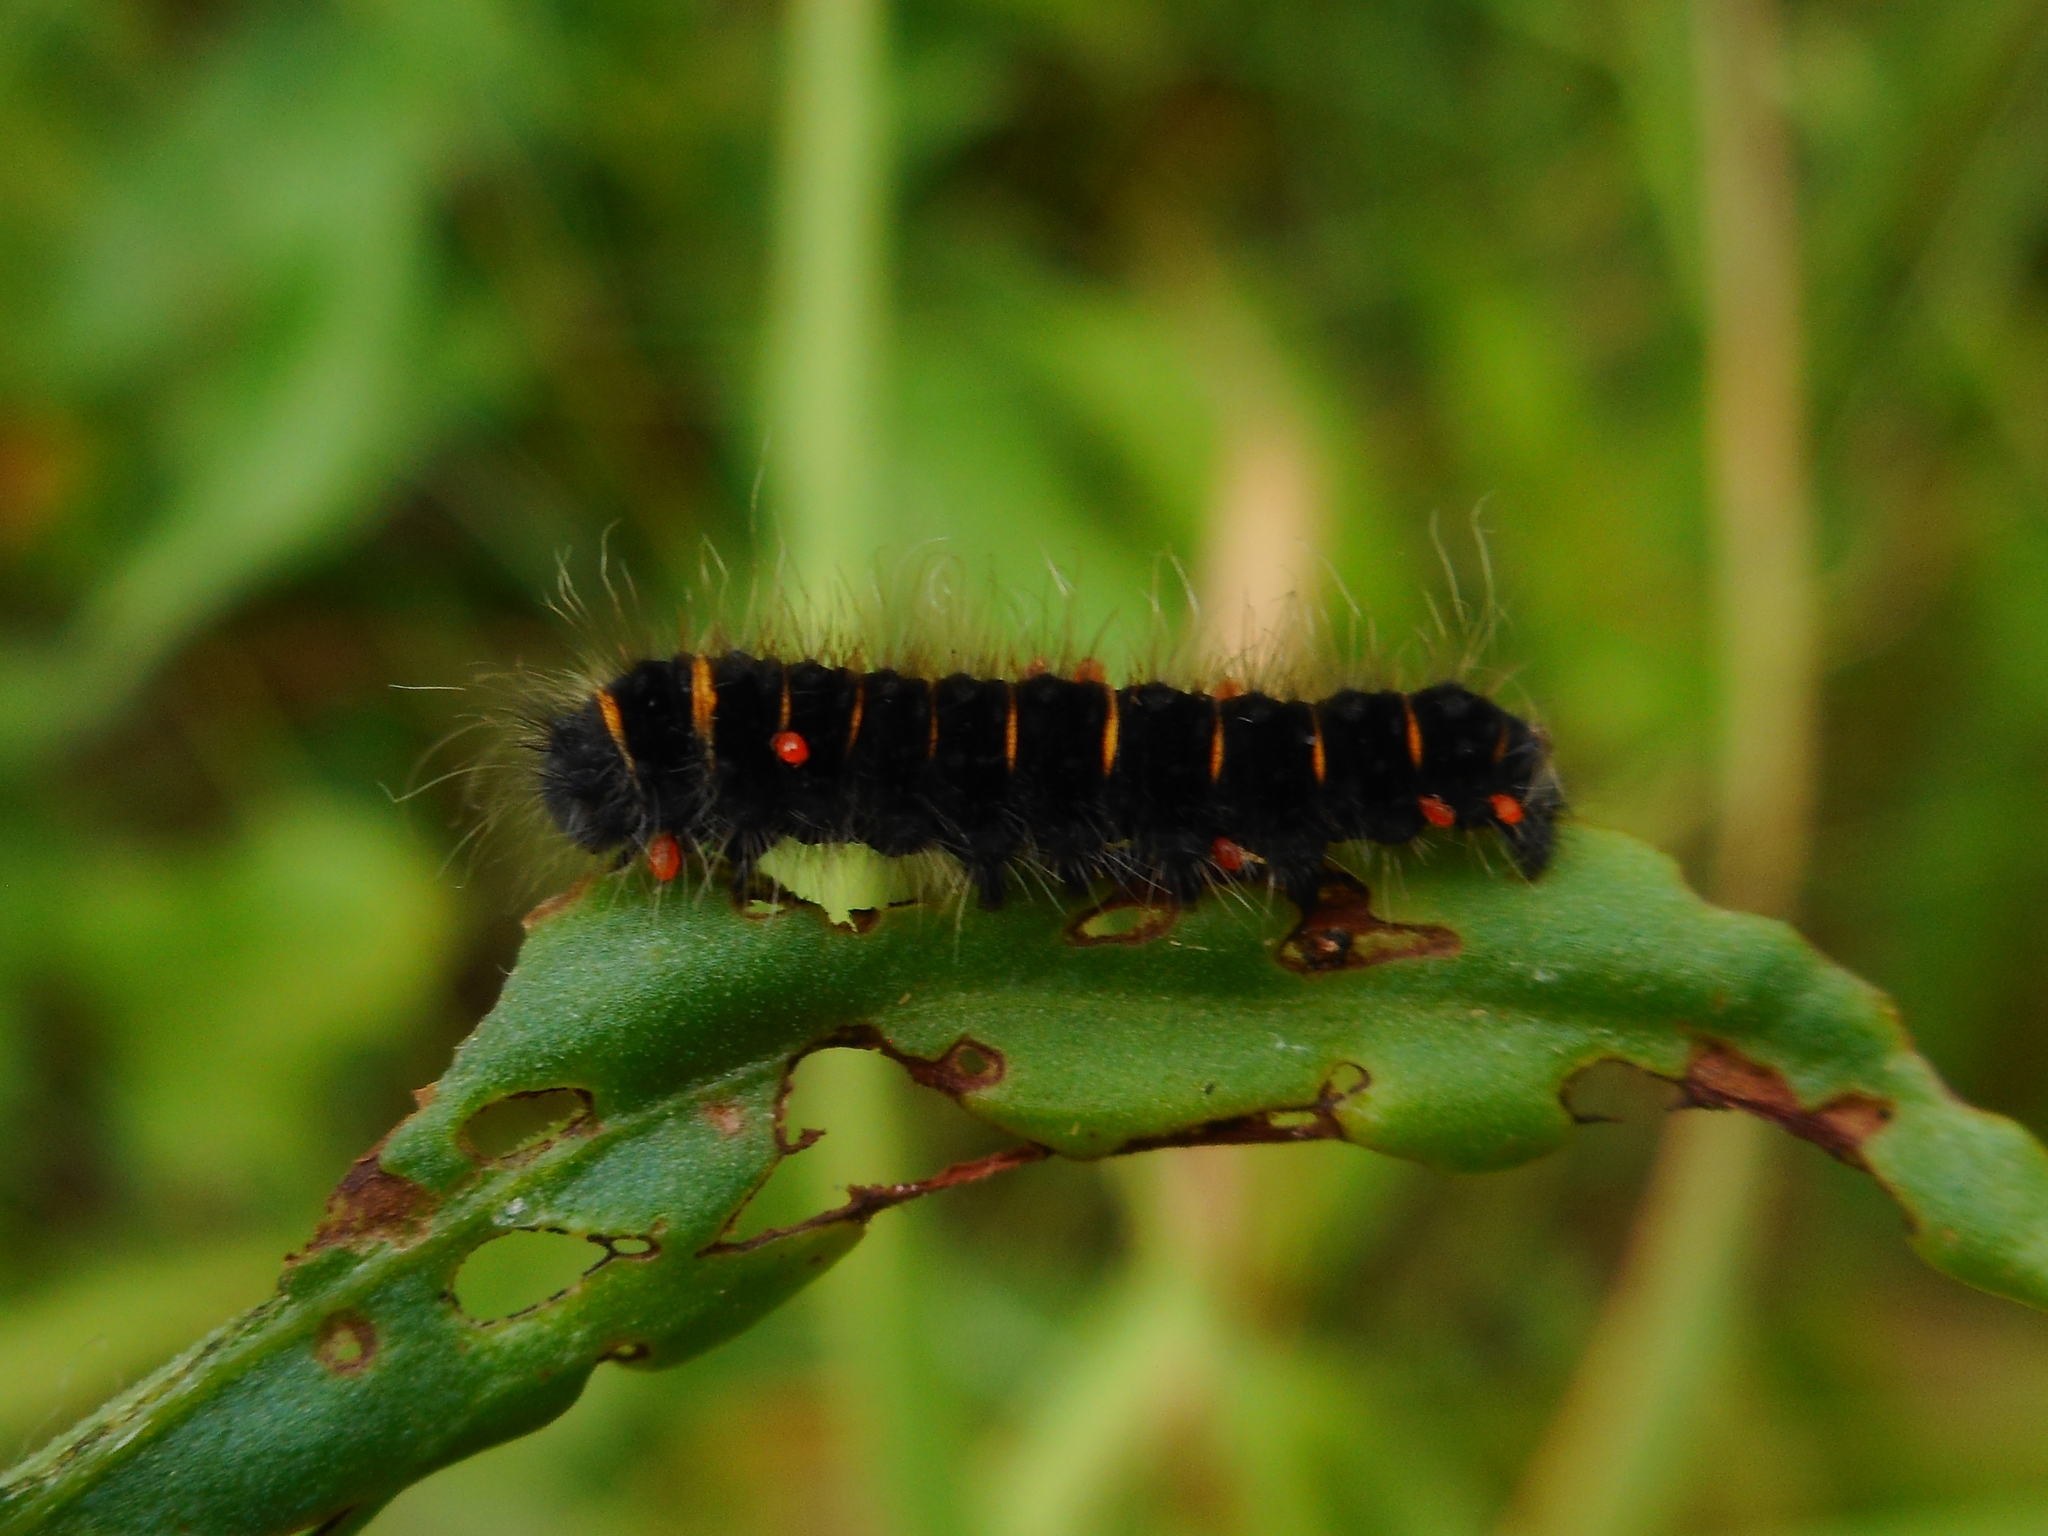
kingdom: Animalia
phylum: Arthropoda
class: Insecta
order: Lepidoptera
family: Lasiocampidae
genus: Macrothylacia
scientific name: Macrothylacia rubi
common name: Fox moth
